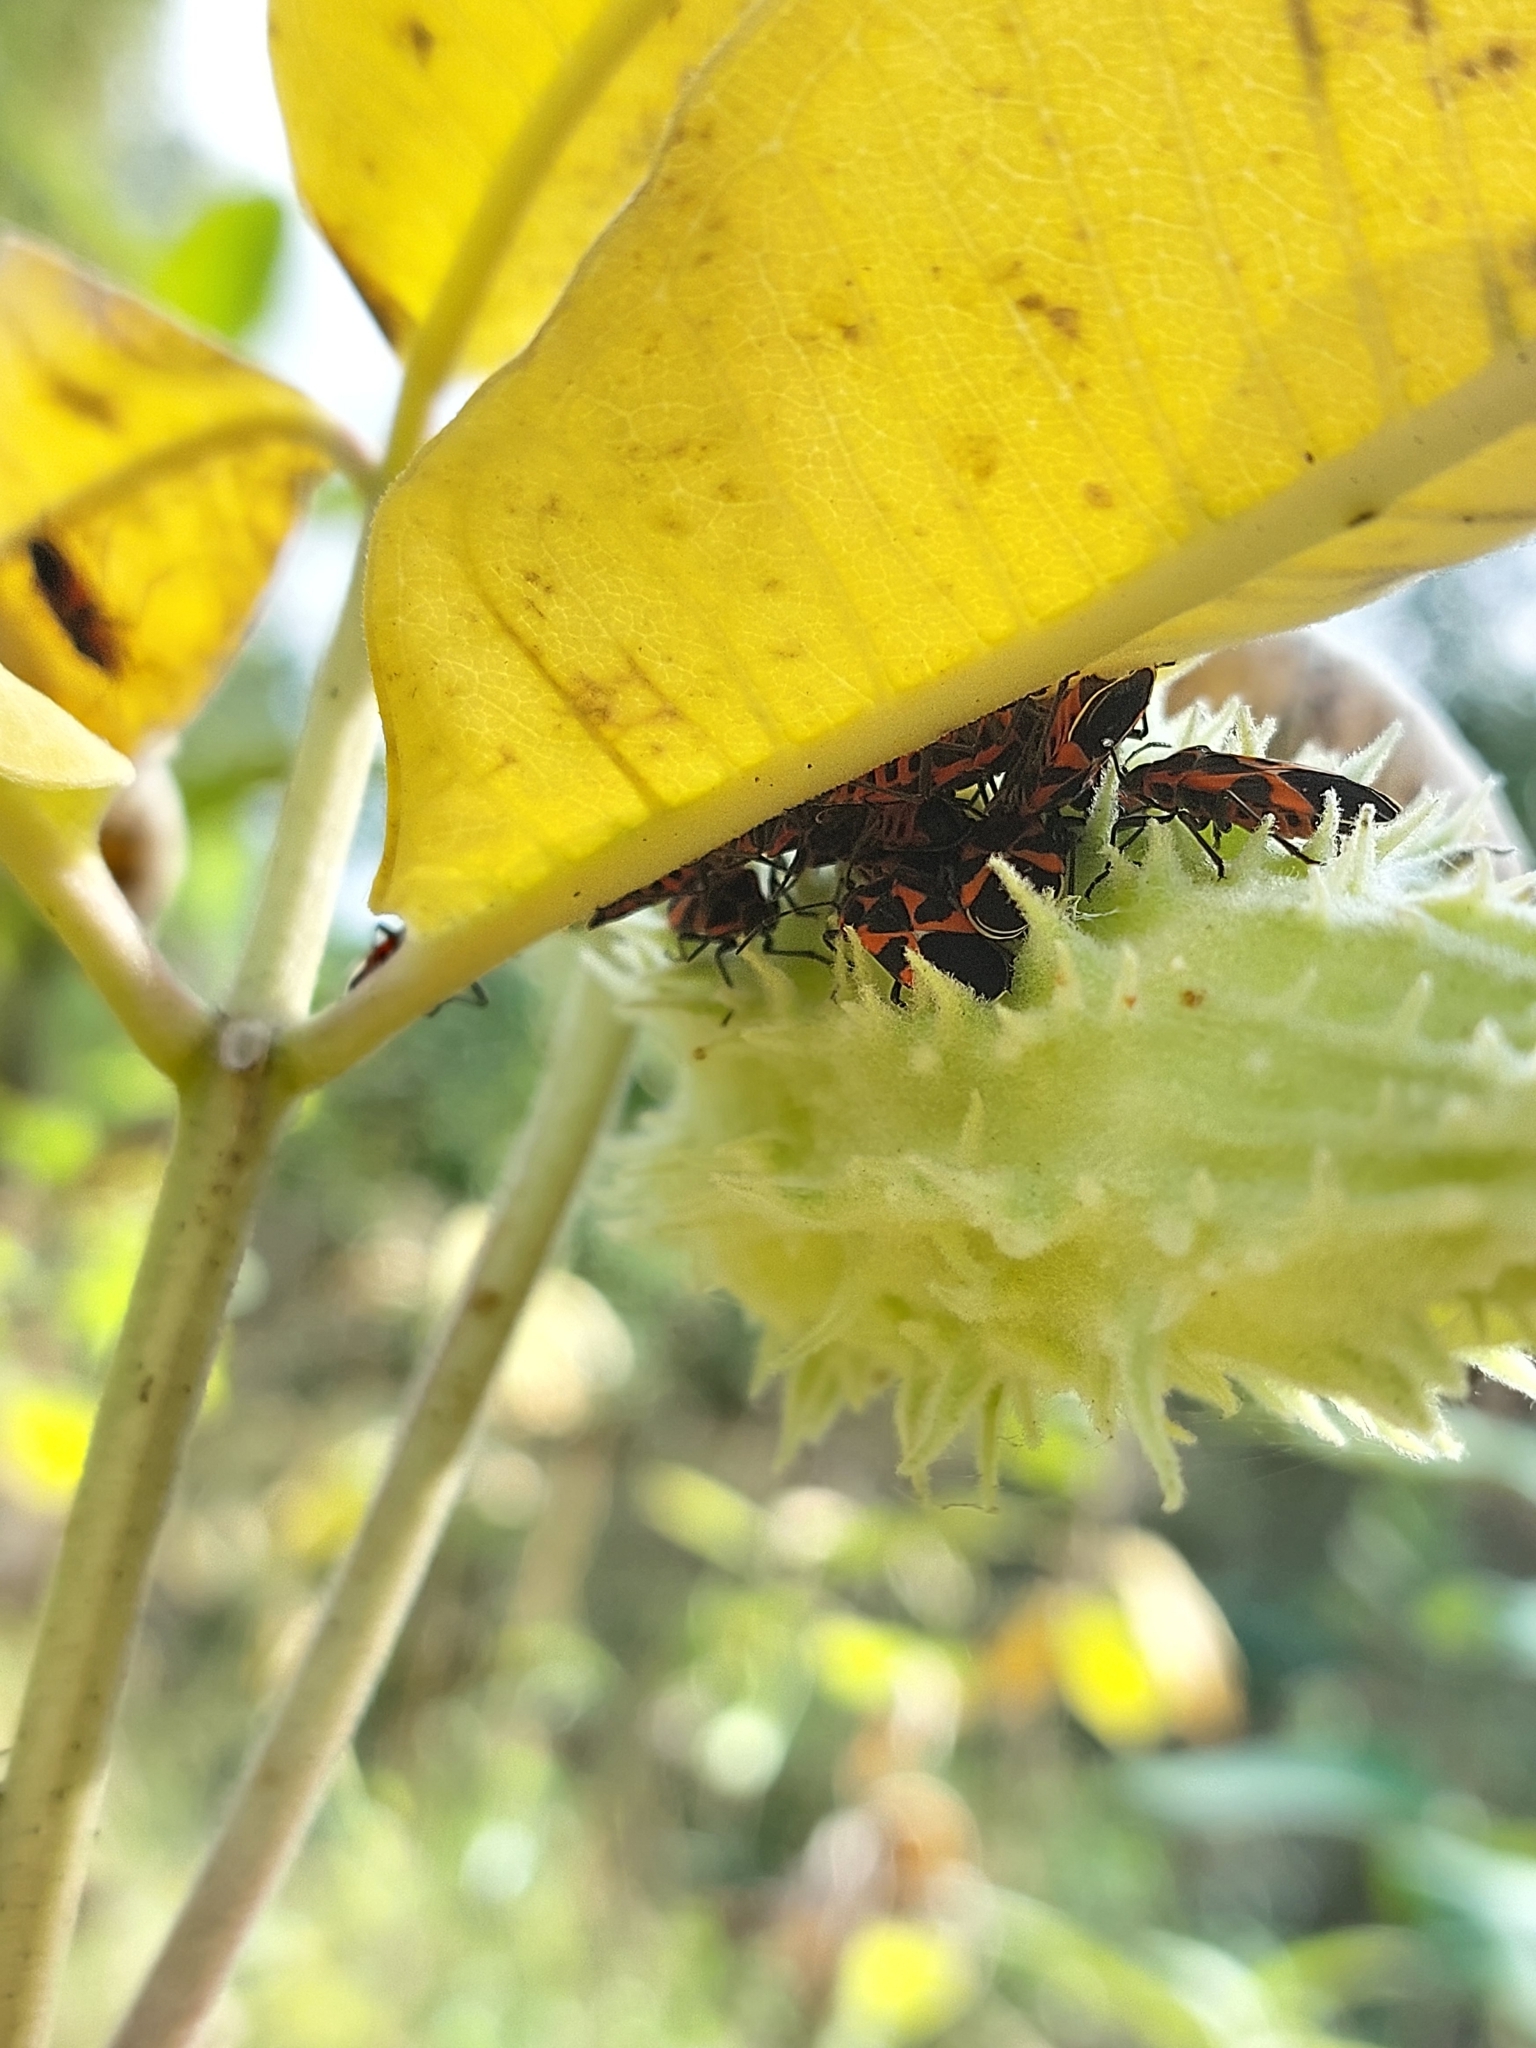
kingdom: Animalia
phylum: Arthropoda
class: Insecta
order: Hemiptera
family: Lygaeidae
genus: Tropidothorax
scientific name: Tropidothorax leucopterus
